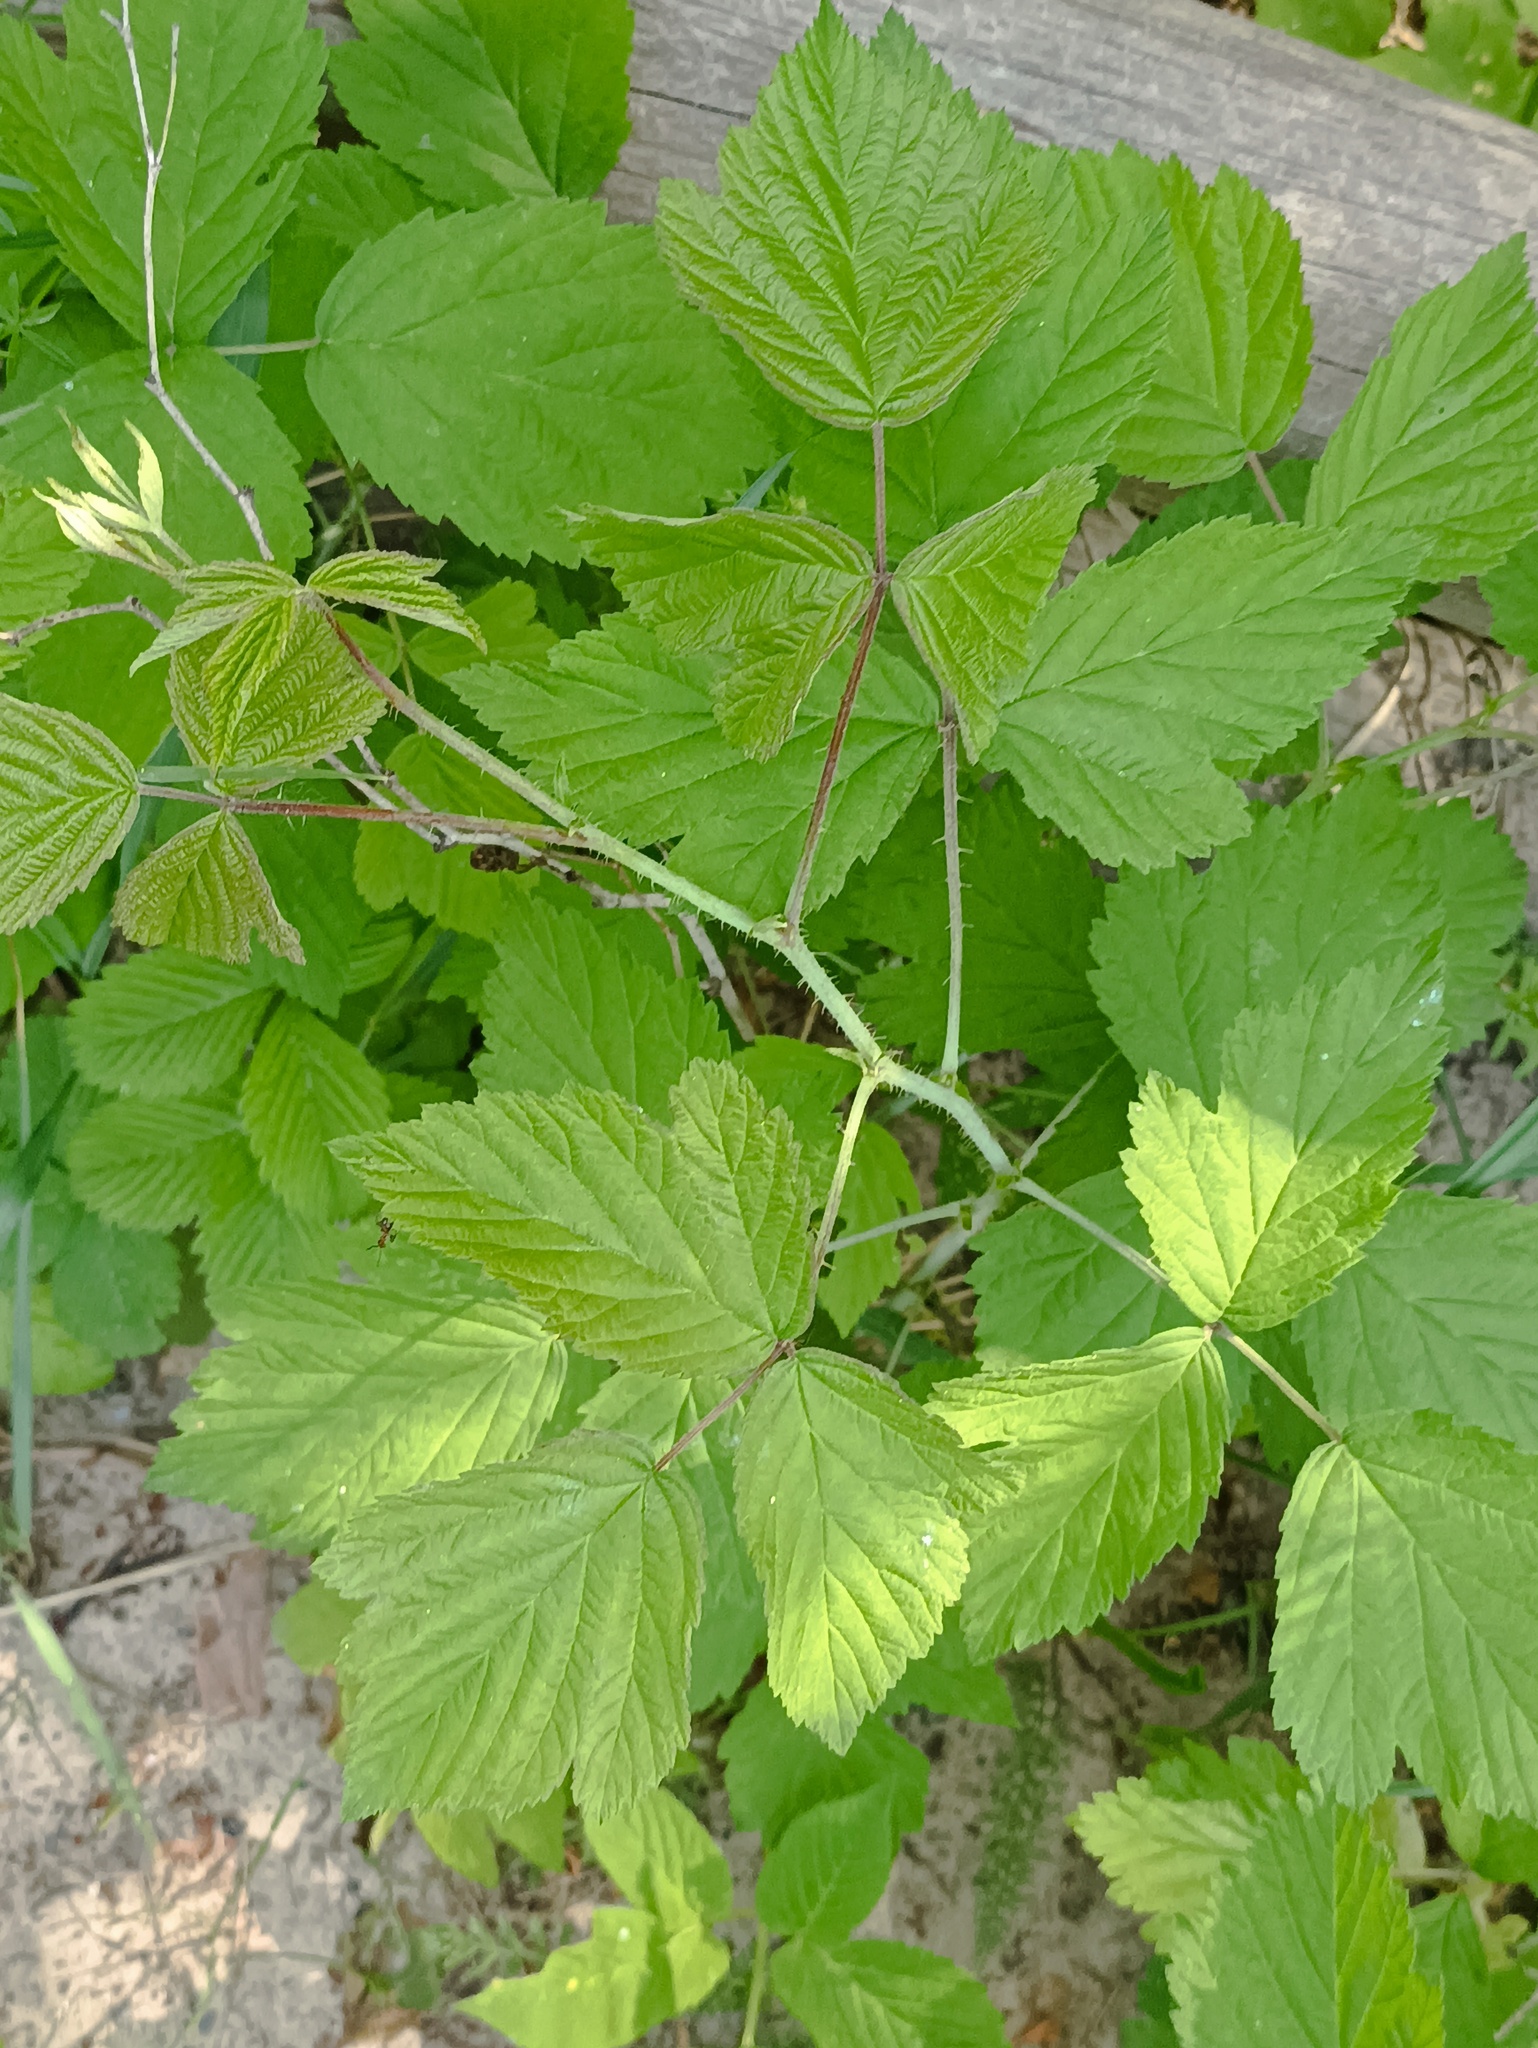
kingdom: Plantae
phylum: Tracheophyta
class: Magnoliopsida
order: Rosales
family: Rosaceae
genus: Rubus
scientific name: Rubus caesius
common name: Dewberry
